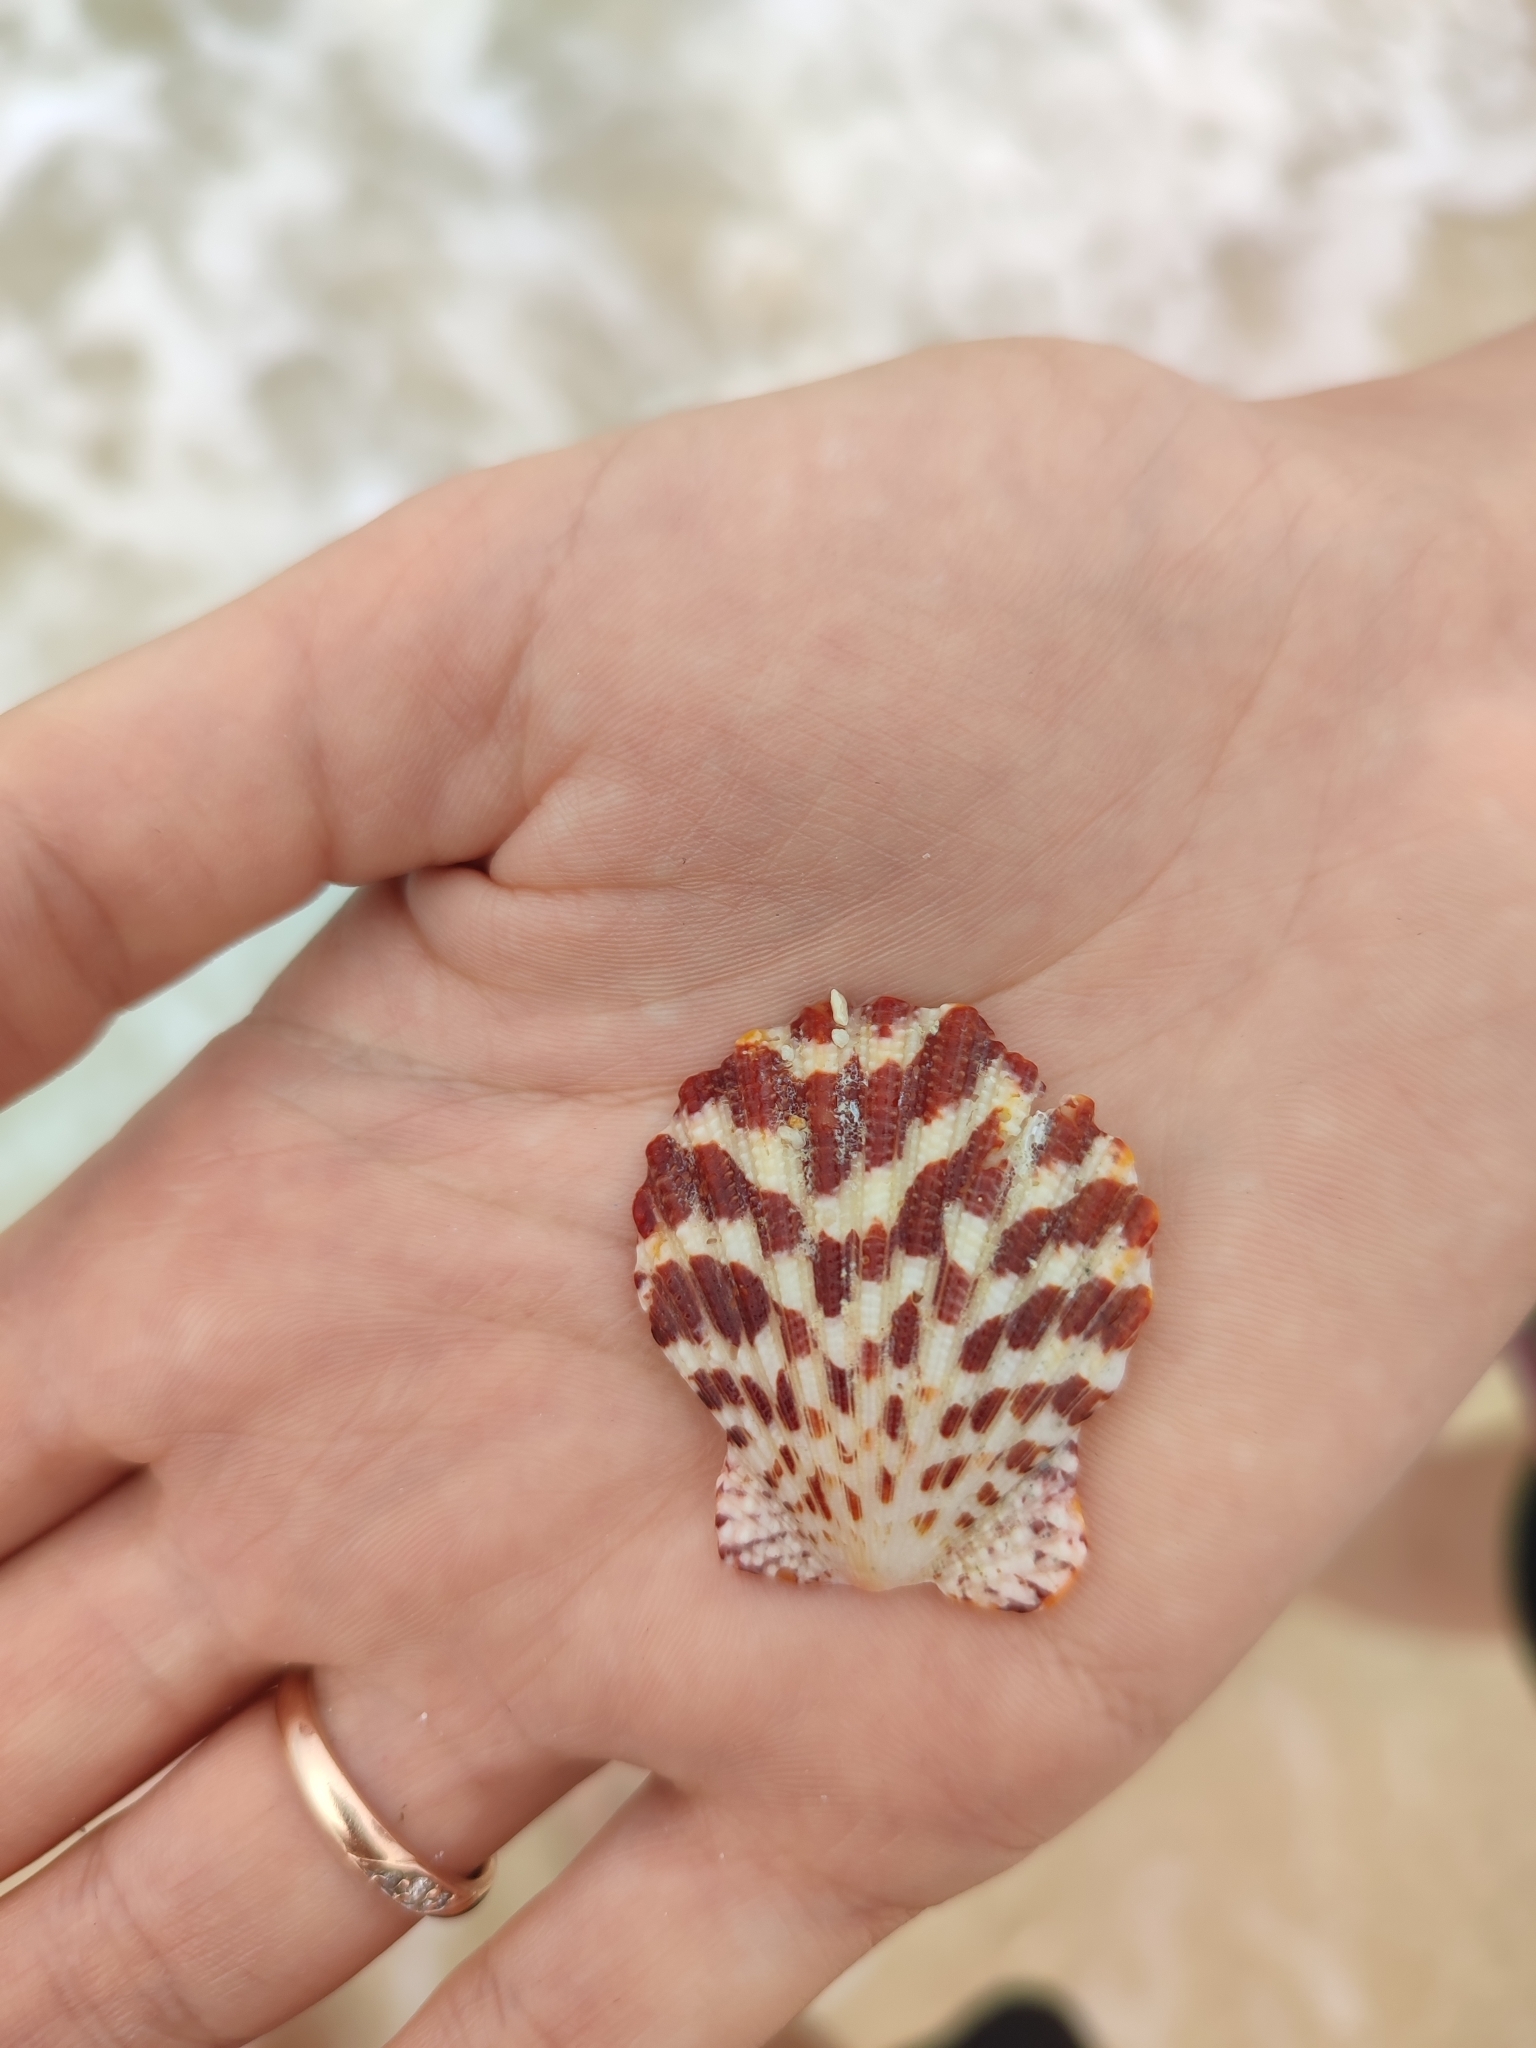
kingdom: Animalia
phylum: Mollusca
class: Bivalvia
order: Pectinida
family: Pectinidae
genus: Gloripallium
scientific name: Gloripallium pallium
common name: Royal cloak scallop
